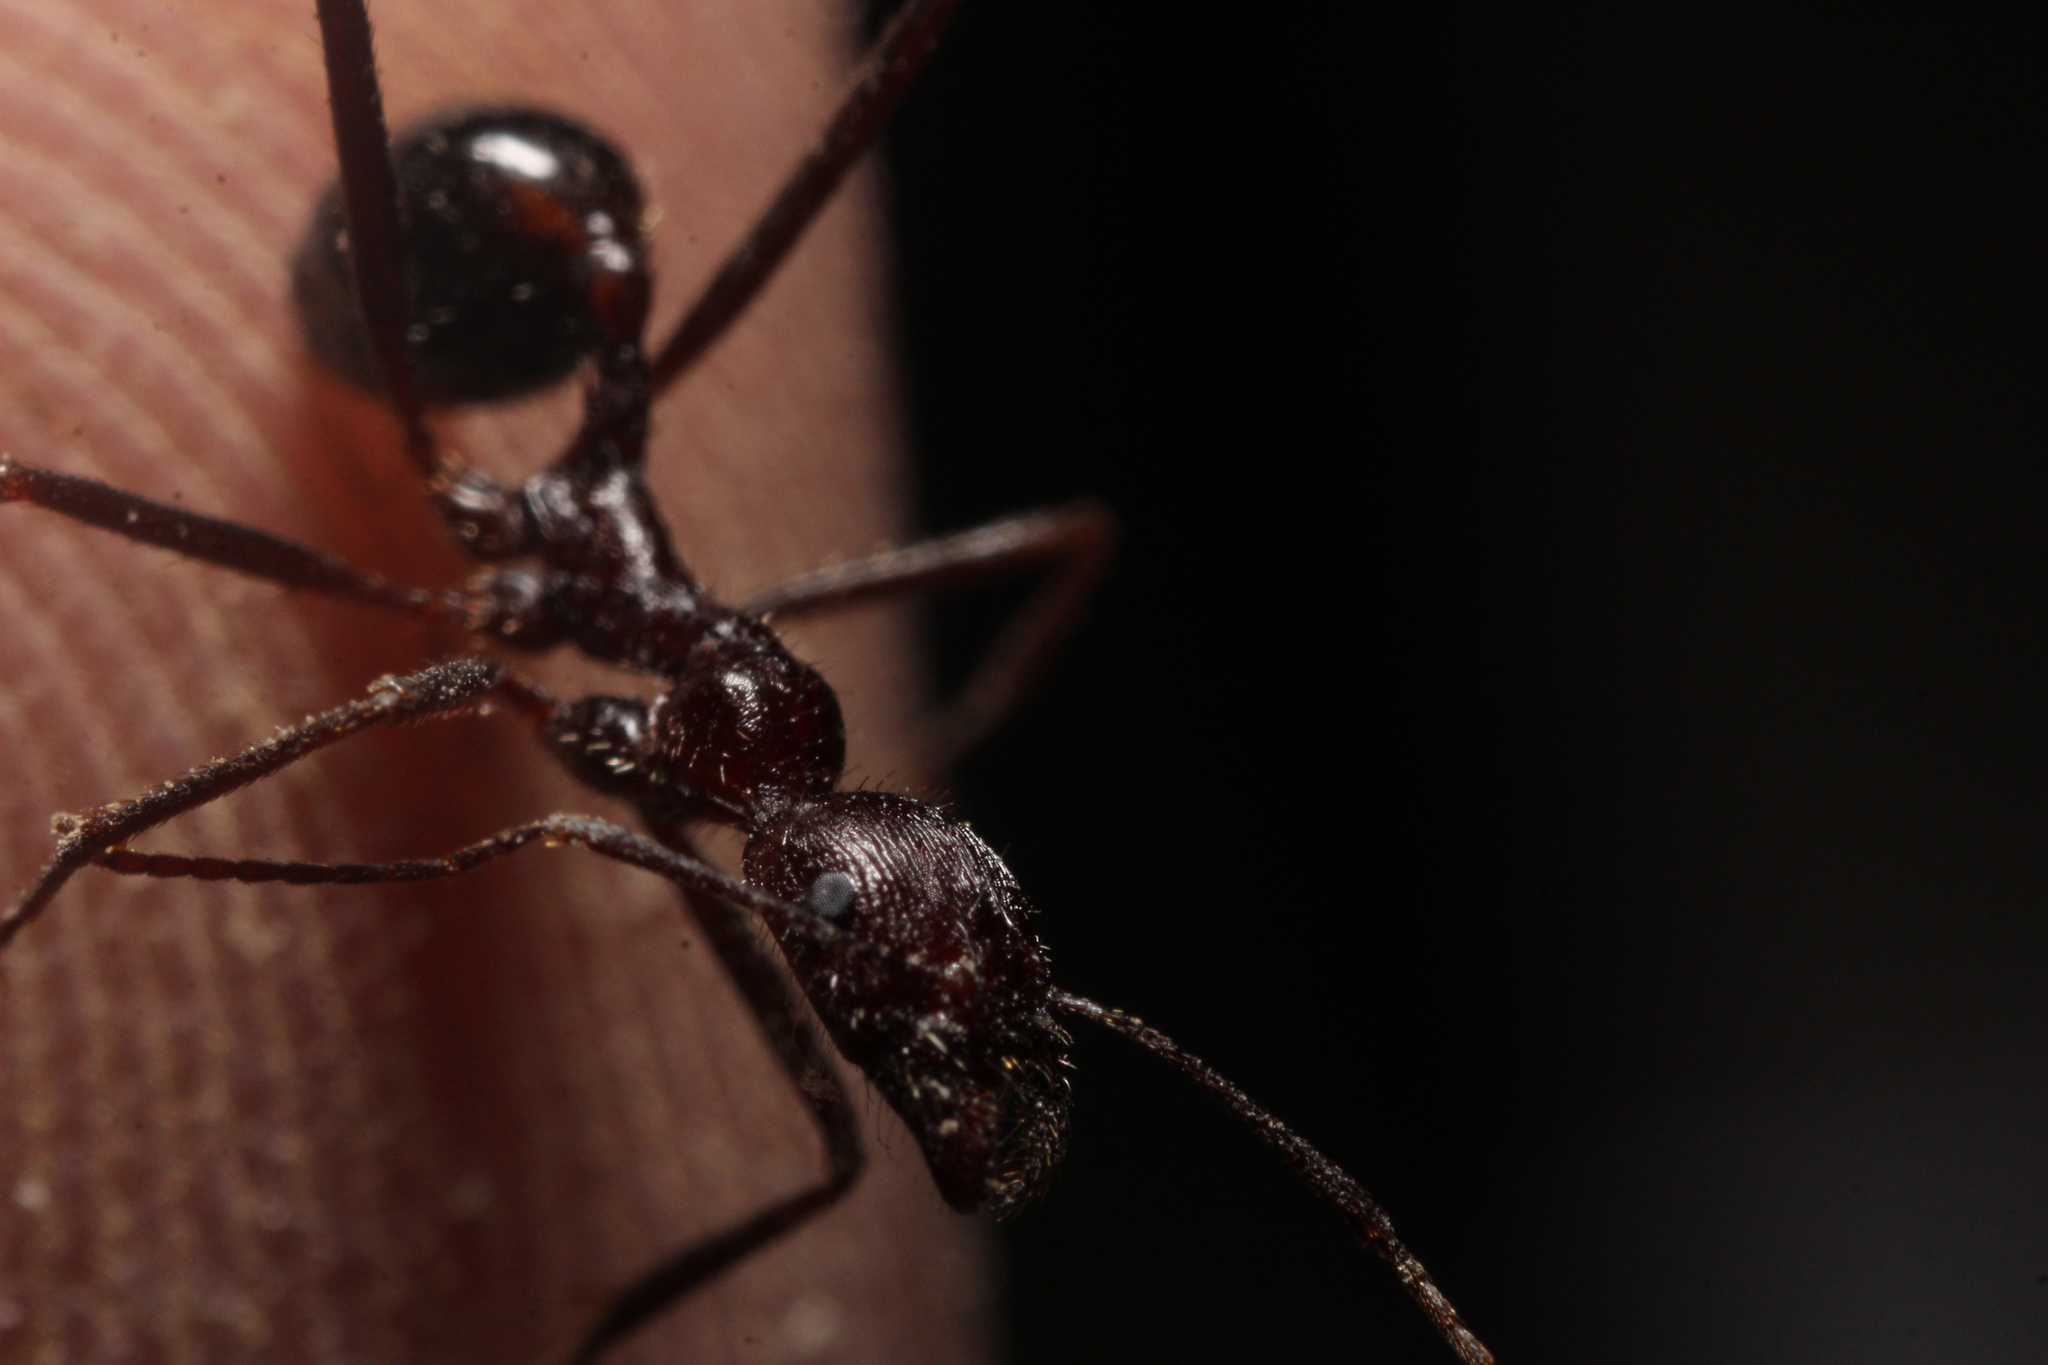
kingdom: Animalia
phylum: Arthropoda
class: Insecta
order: Hymenoptera
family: Formicidae
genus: Novomessor
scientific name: Novomessor cockerelli
